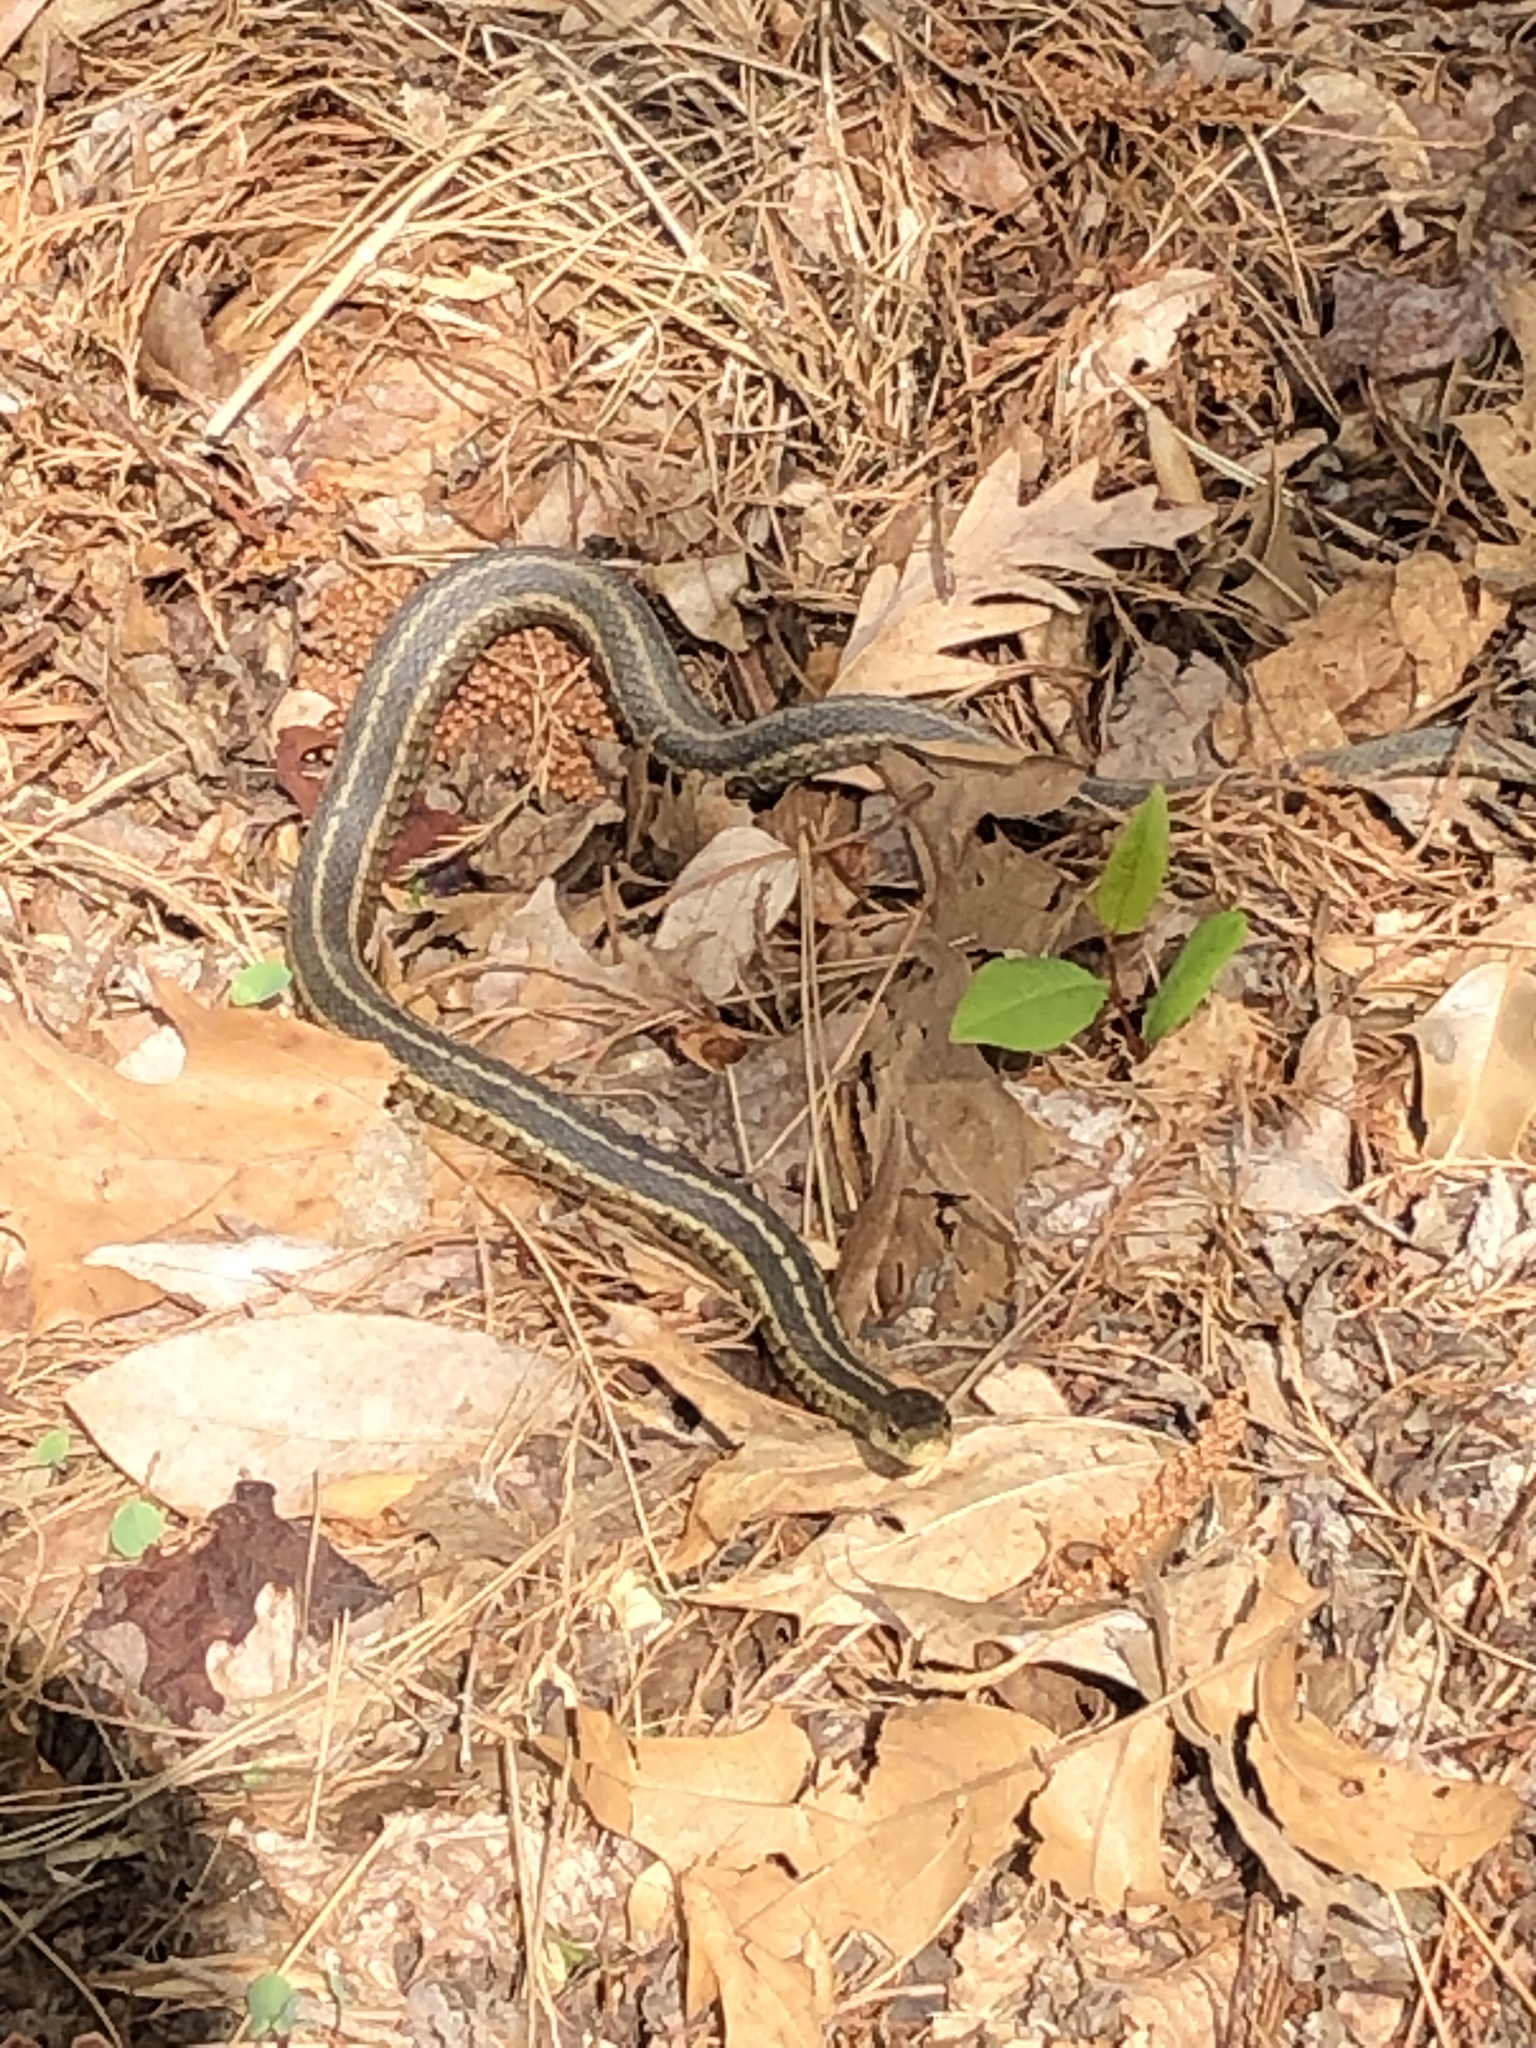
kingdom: Animalia
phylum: Chordata
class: Squamata
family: Colubridae
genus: Thamnophis
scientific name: Thamnophis sirtalis
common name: Common garter snake
